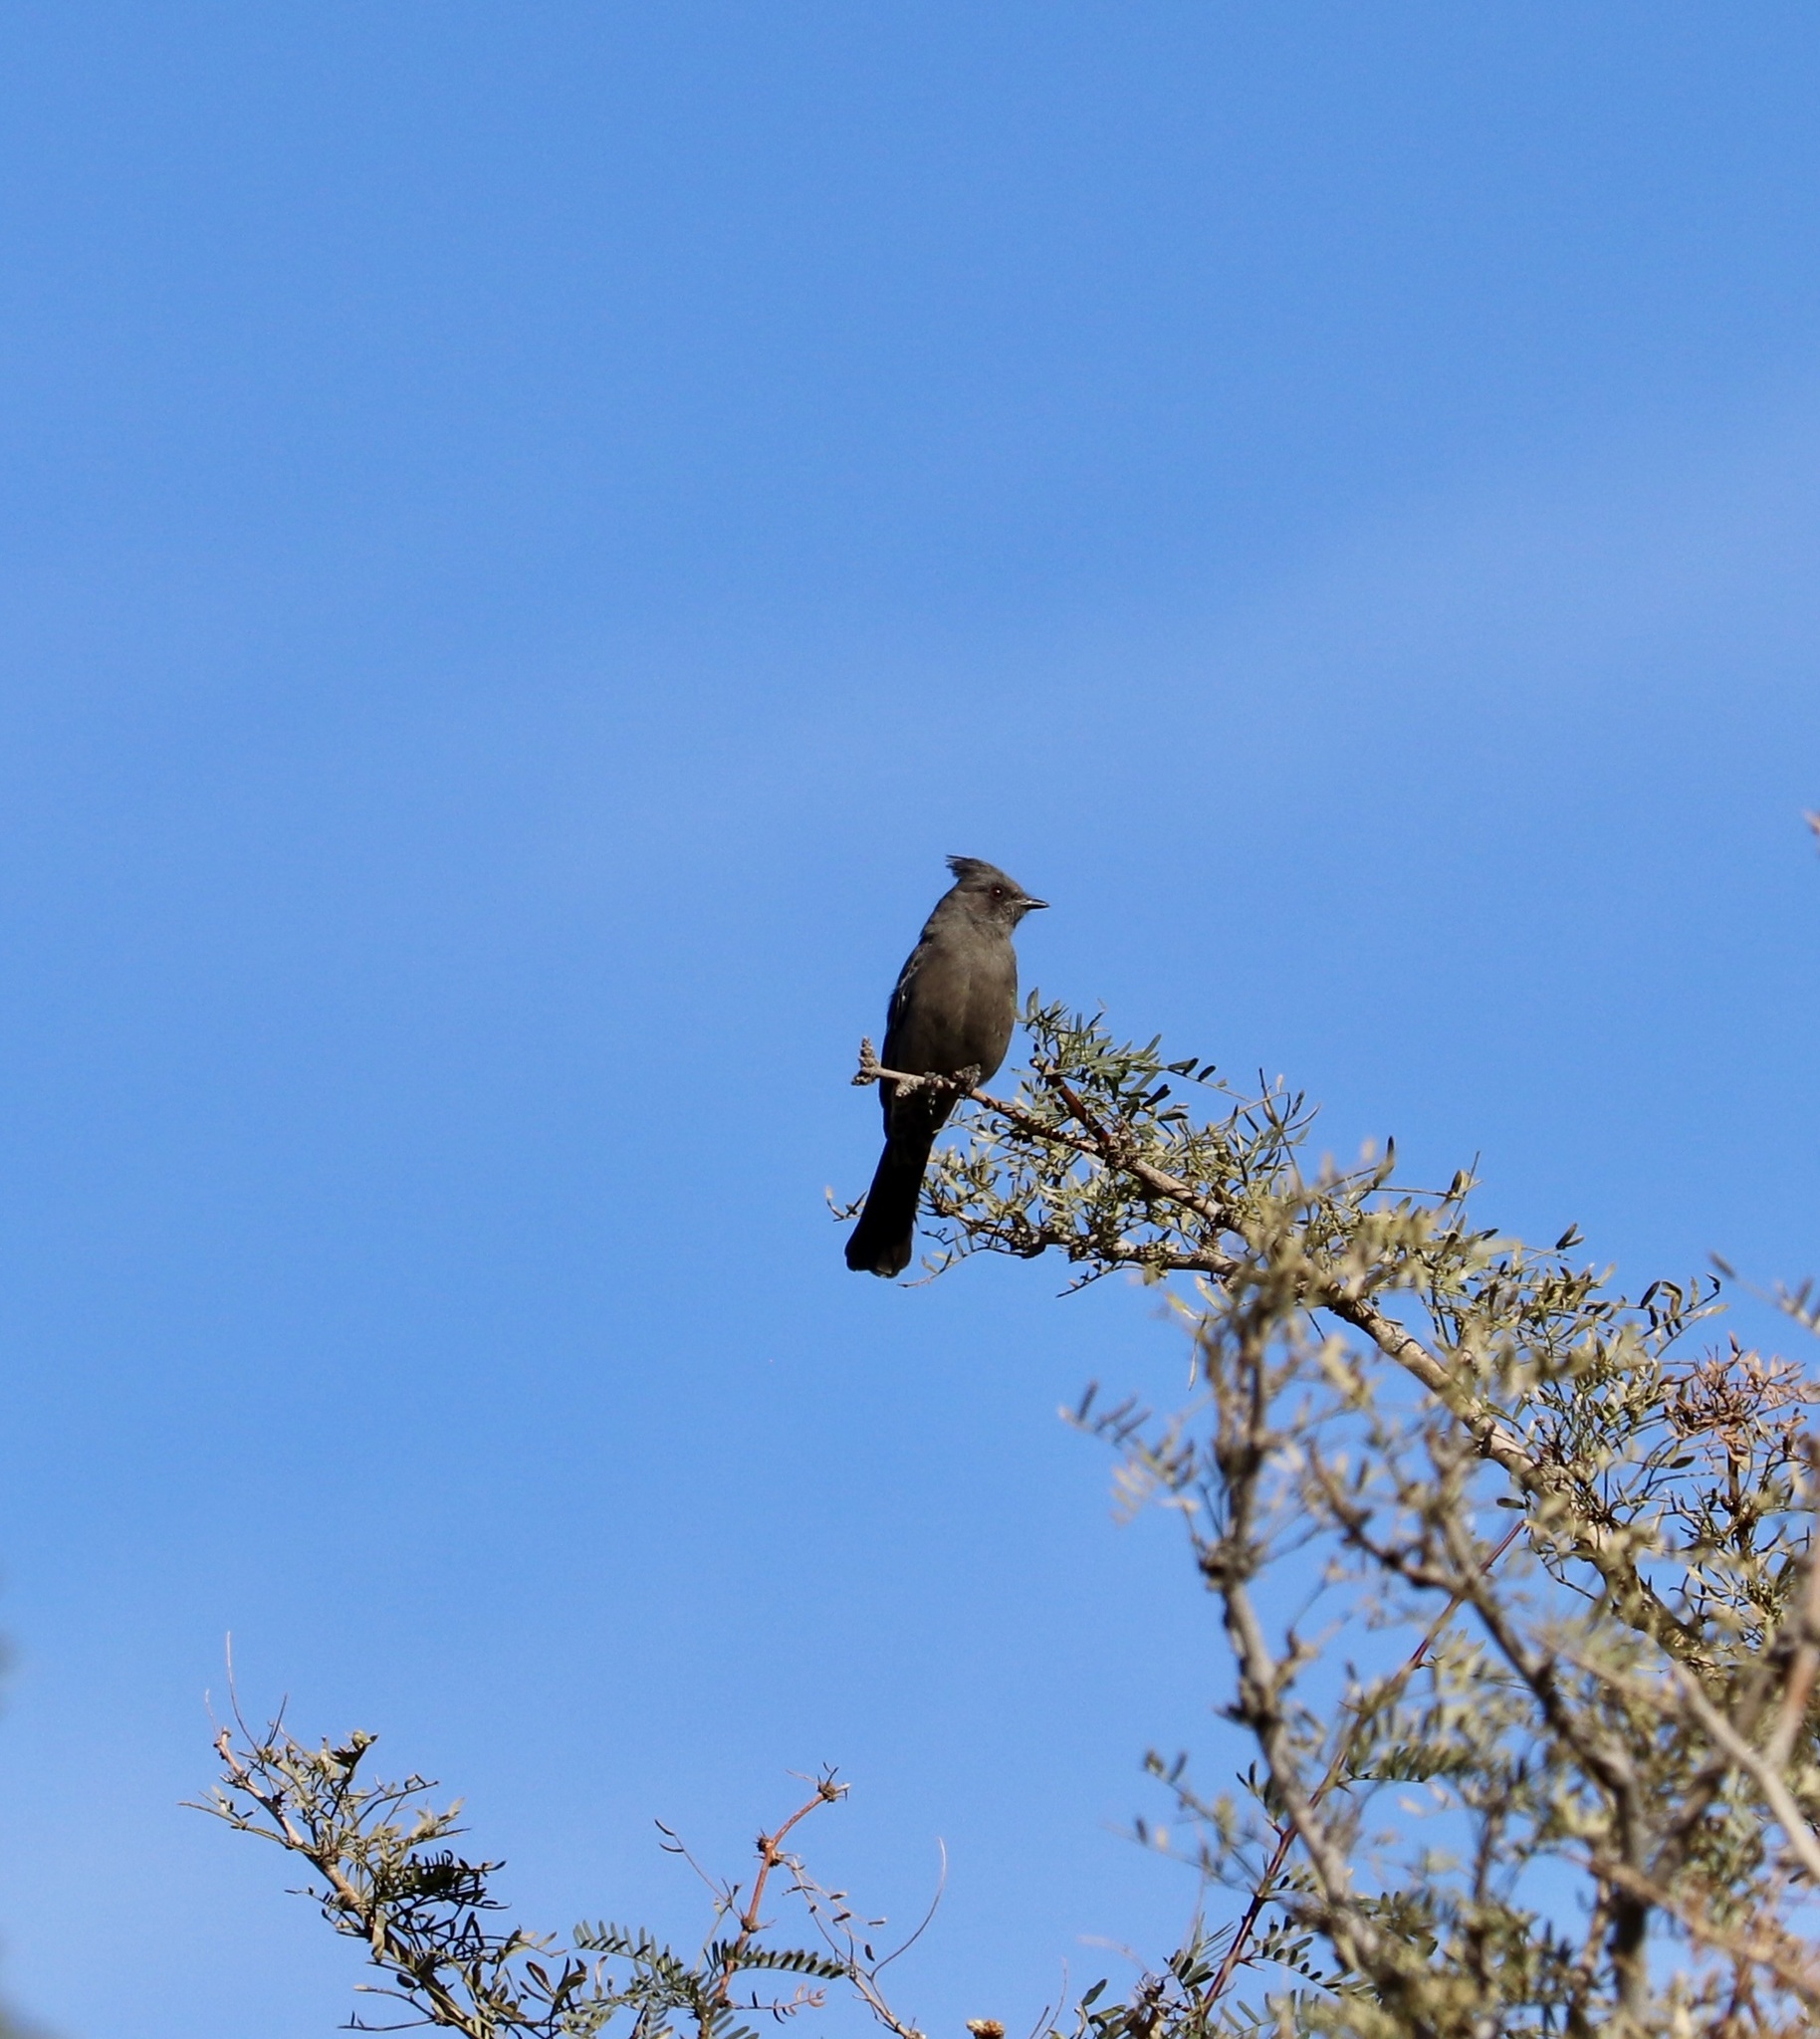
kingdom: Animalia
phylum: Chordata
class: Aves
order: Passeriformes
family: Ptilogonatidae
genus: Phainopepla
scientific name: Phainopepla nitens
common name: Phainopepla
